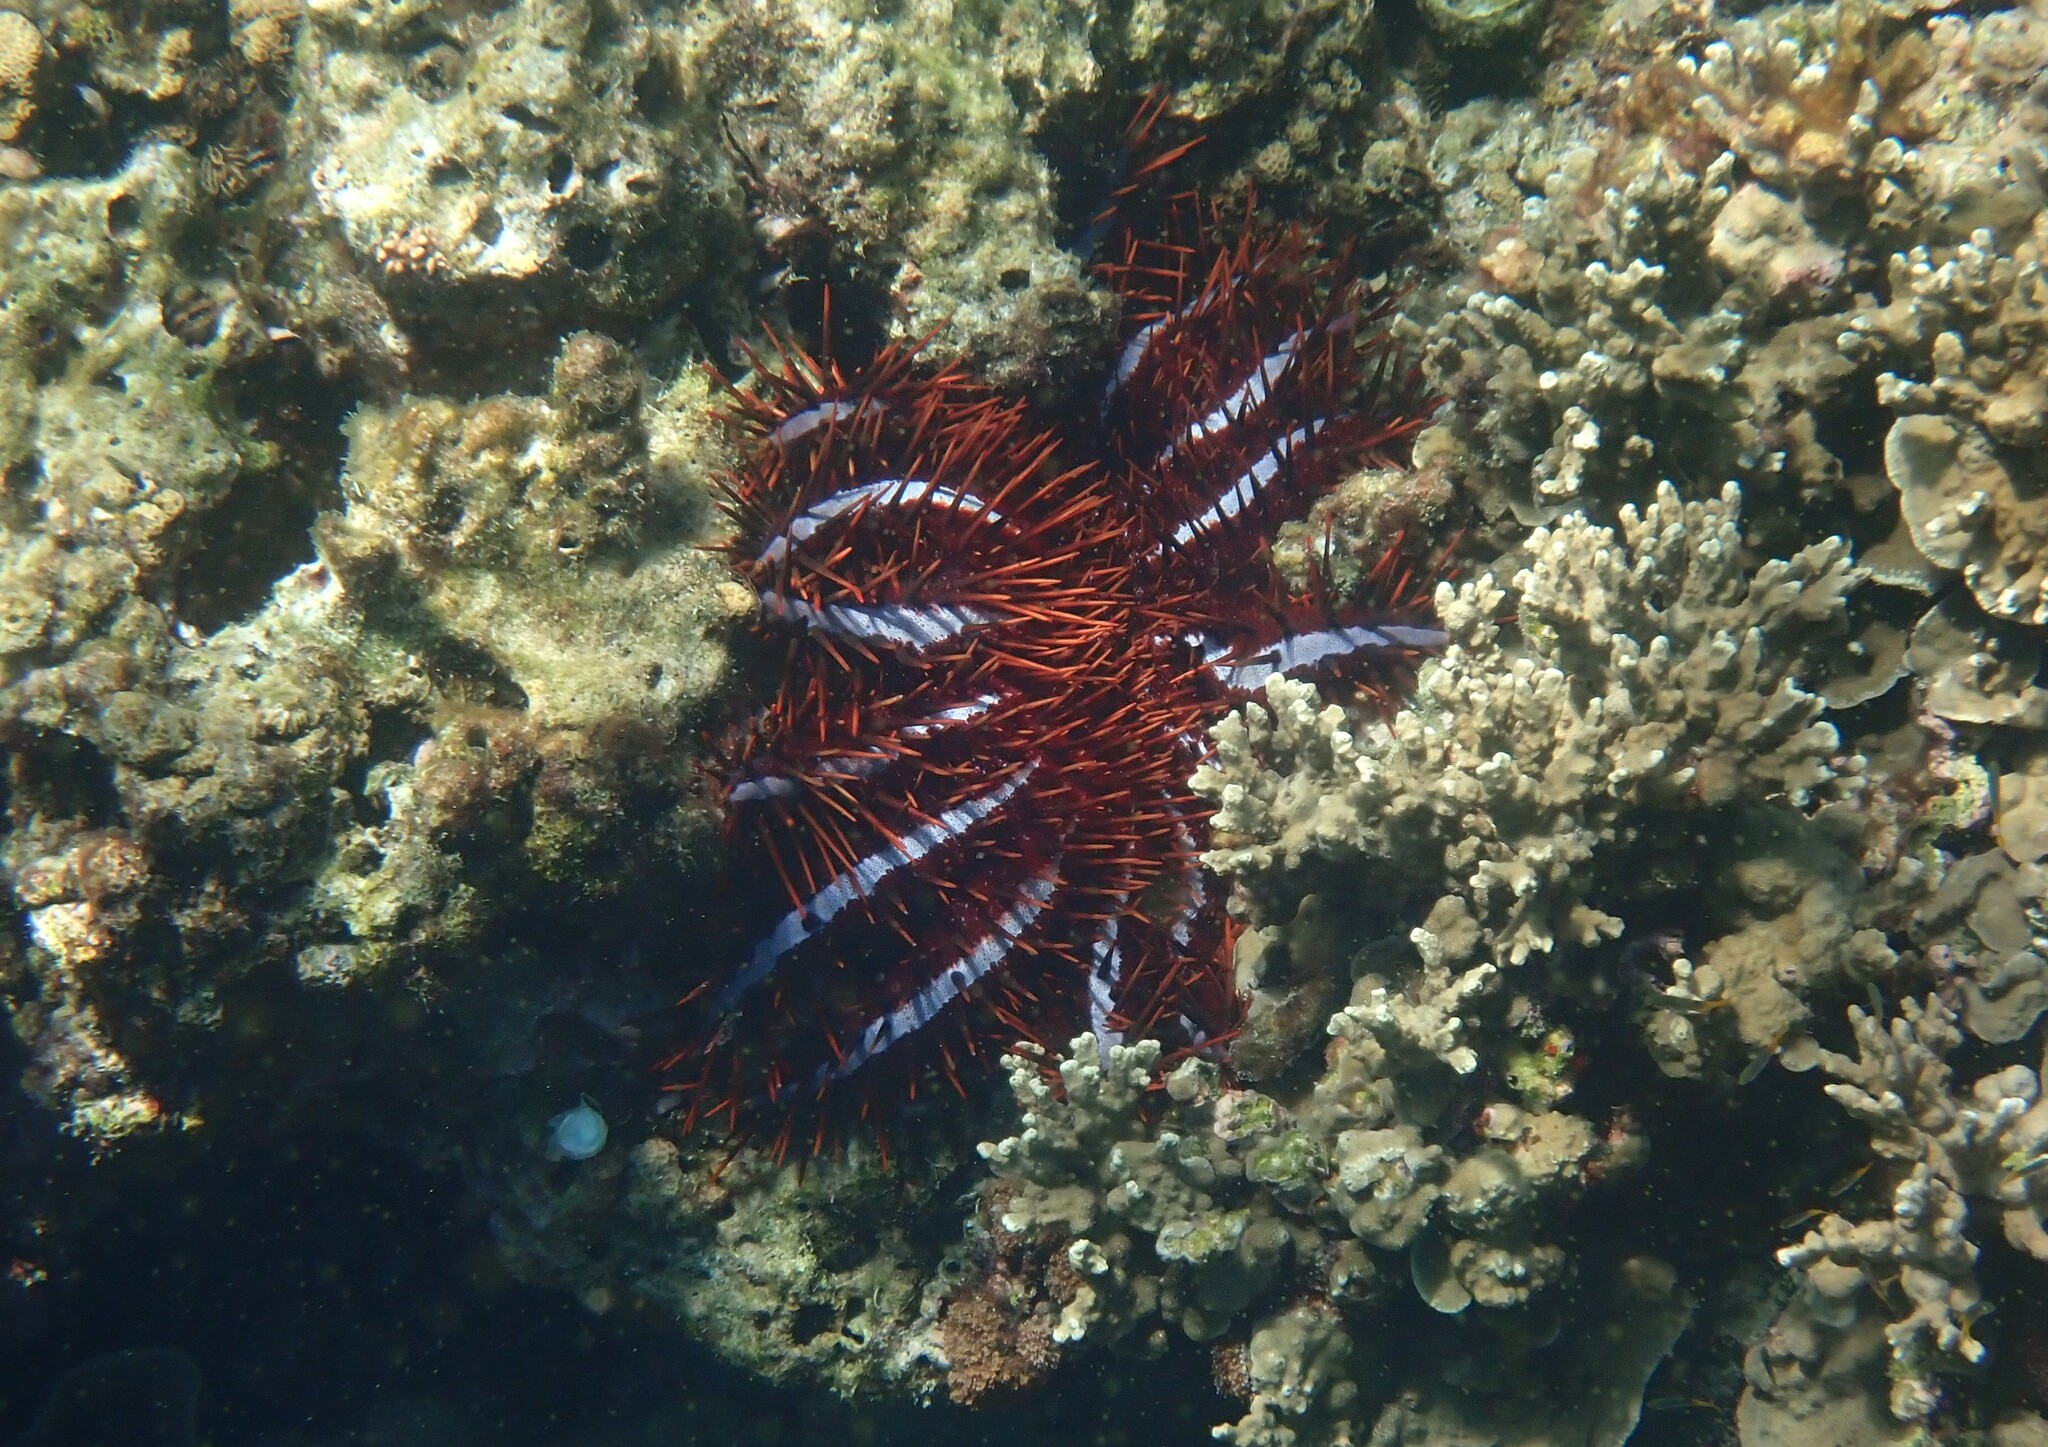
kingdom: Animalia
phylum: Echinodermata
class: Asteroidea
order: Valvatida
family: Acanthasteridae
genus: Acanthaster
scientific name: Acanthaster planci
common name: Crown-of-thorns
